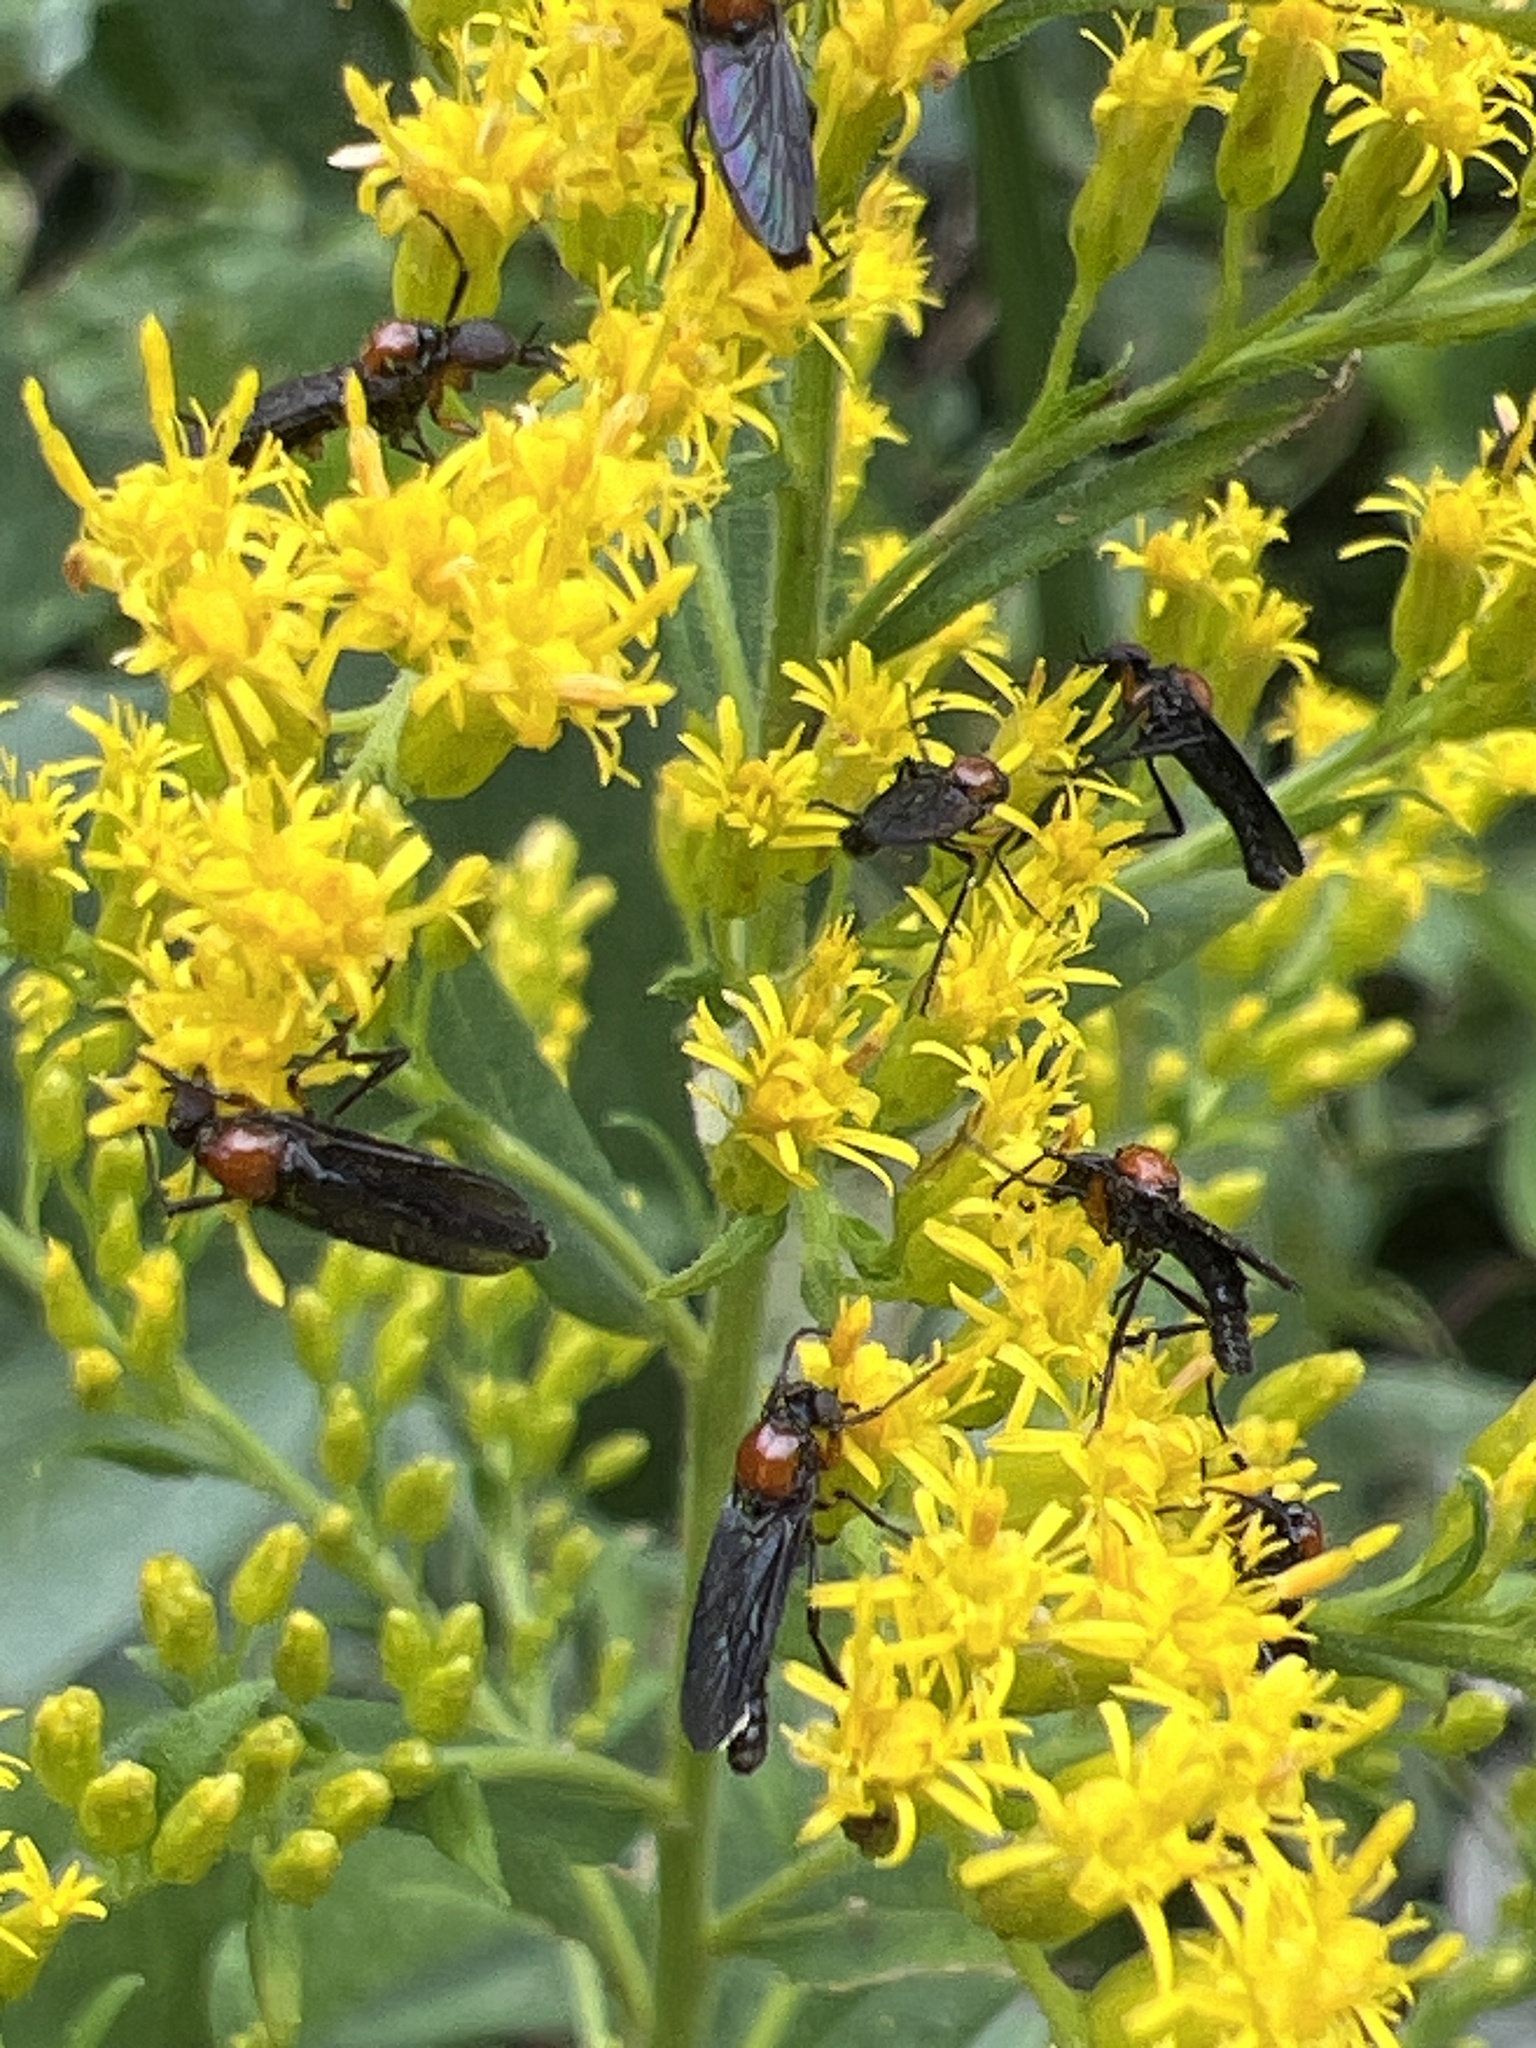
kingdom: Animalia
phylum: Arthropoda
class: Insecta
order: Diptera
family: Bibionidae
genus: Dilophus
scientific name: Dilophus spinipes
